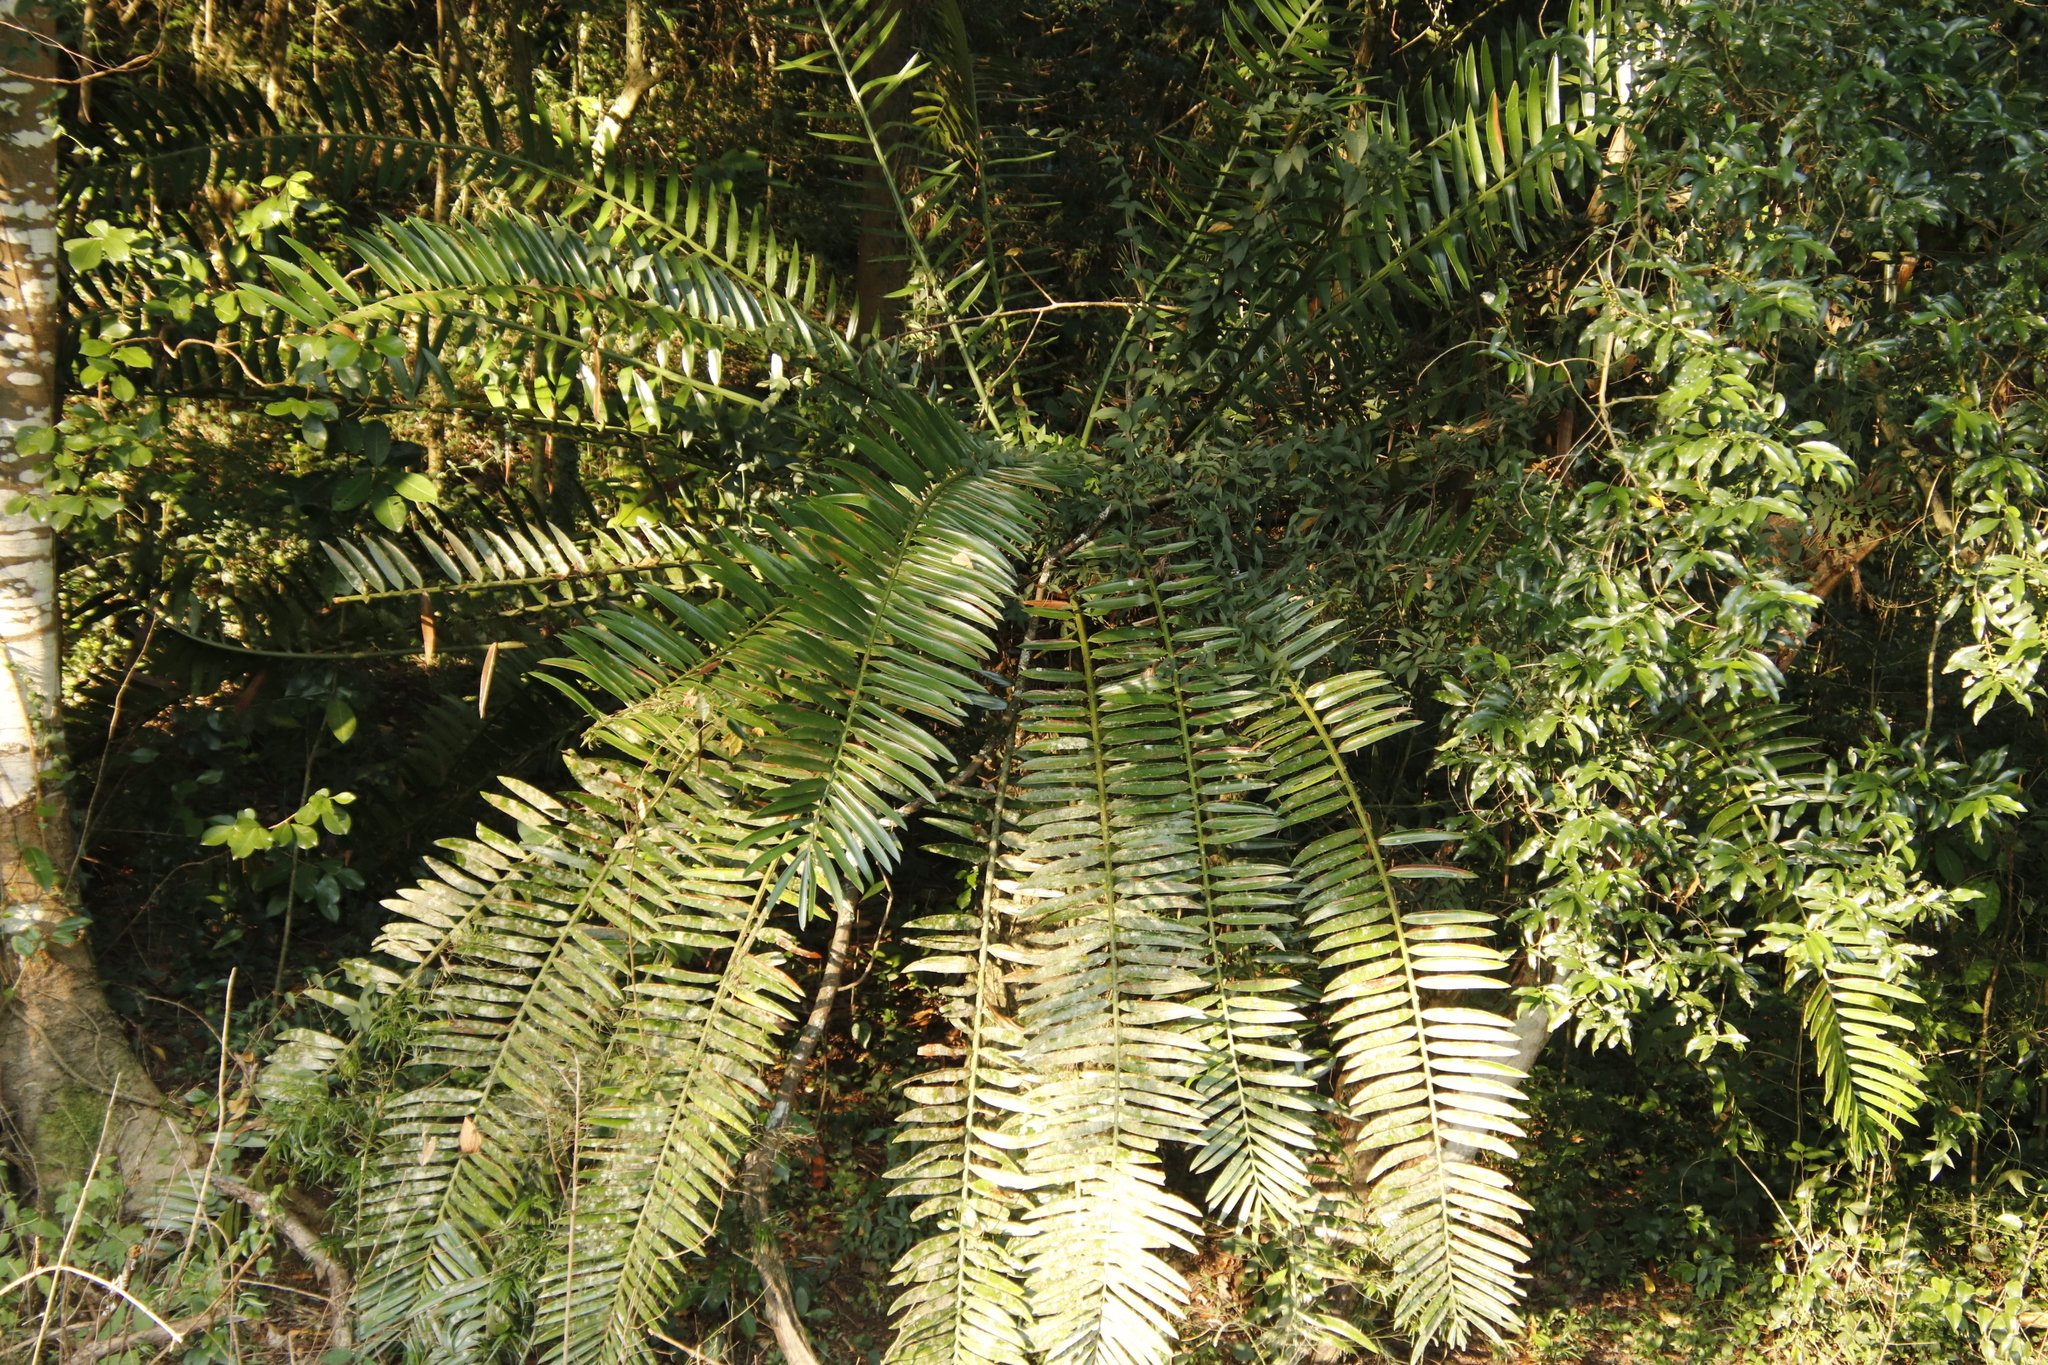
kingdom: Plantae
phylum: Tracheophyta
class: Cycadopsida
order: Cycadales
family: Zamiaceae
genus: Encephalartos
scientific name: Encephalartos natalensis
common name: Natal cycad
